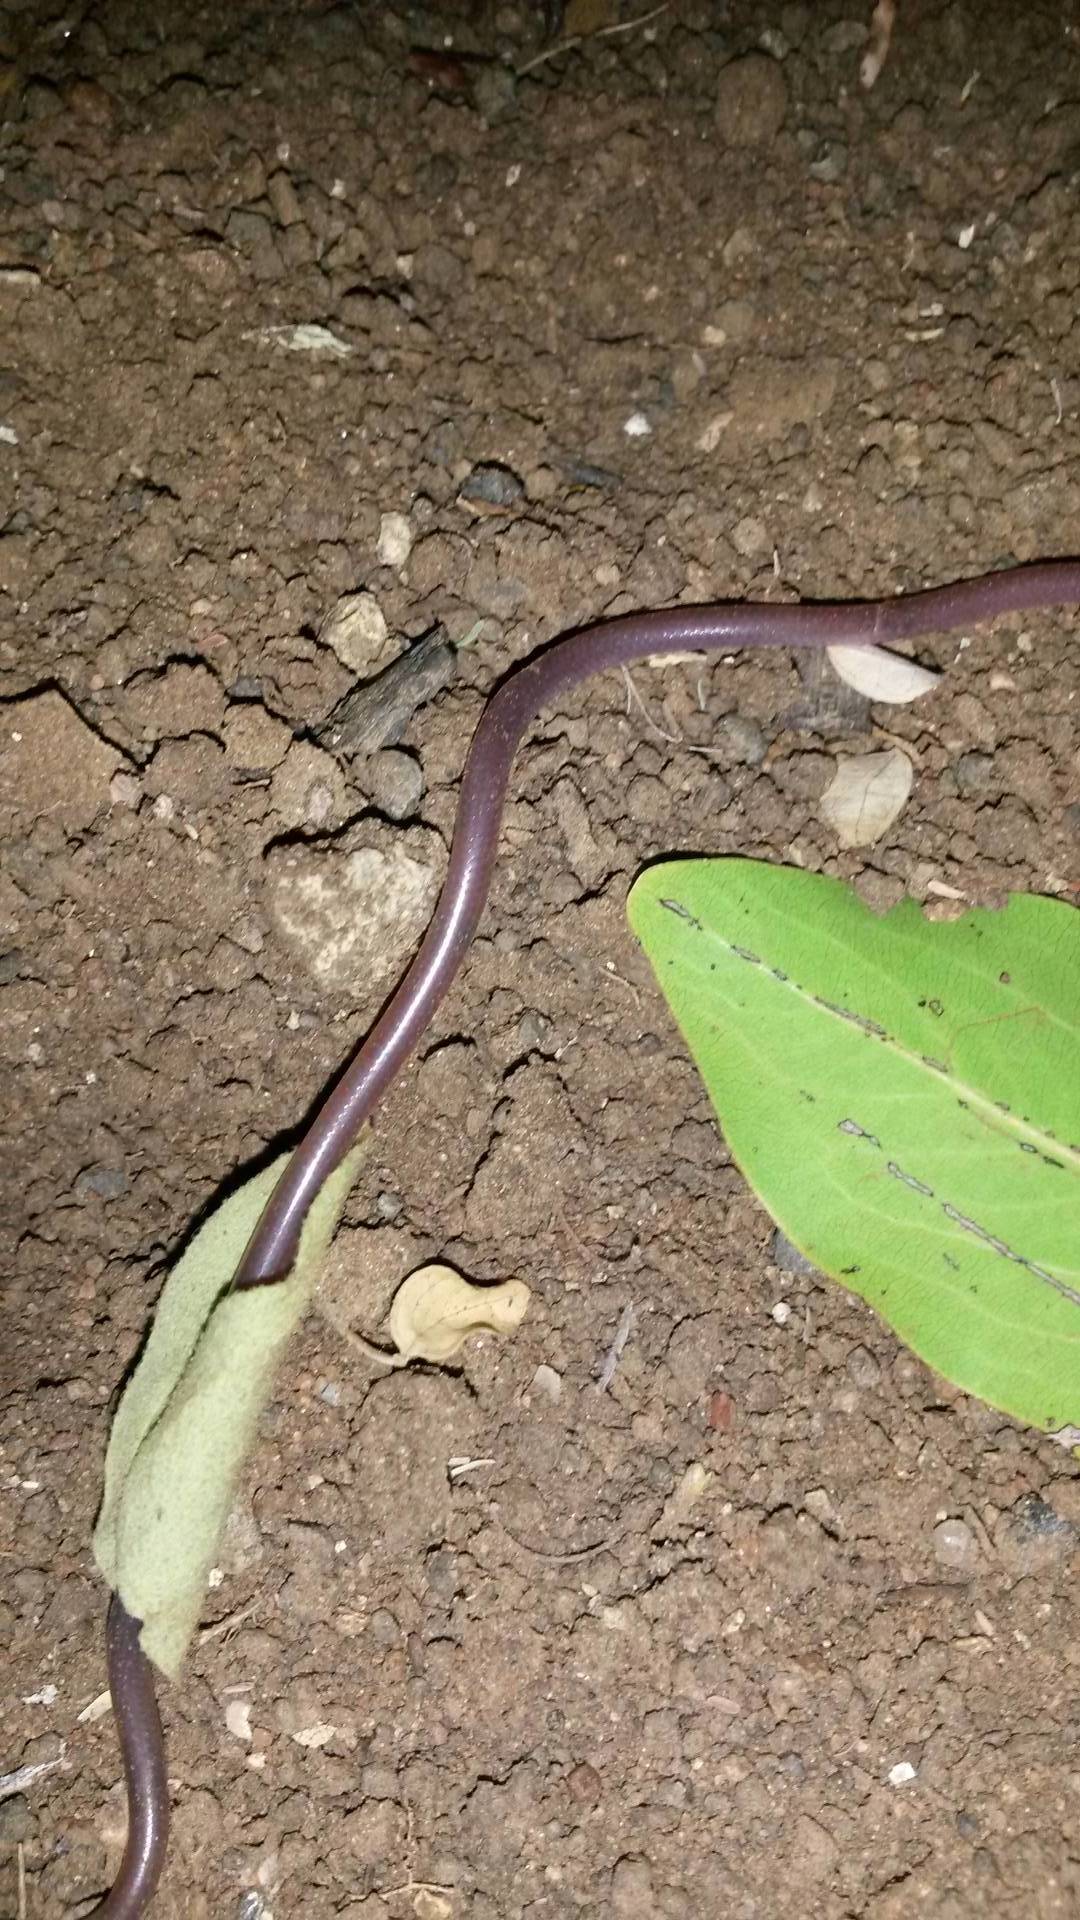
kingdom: Animalia
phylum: Chordata
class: Squamata
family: Leptotyphlopidae
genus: Myriopholis
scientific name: Myriopholis longicauda
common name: Long-tailed thread snake
